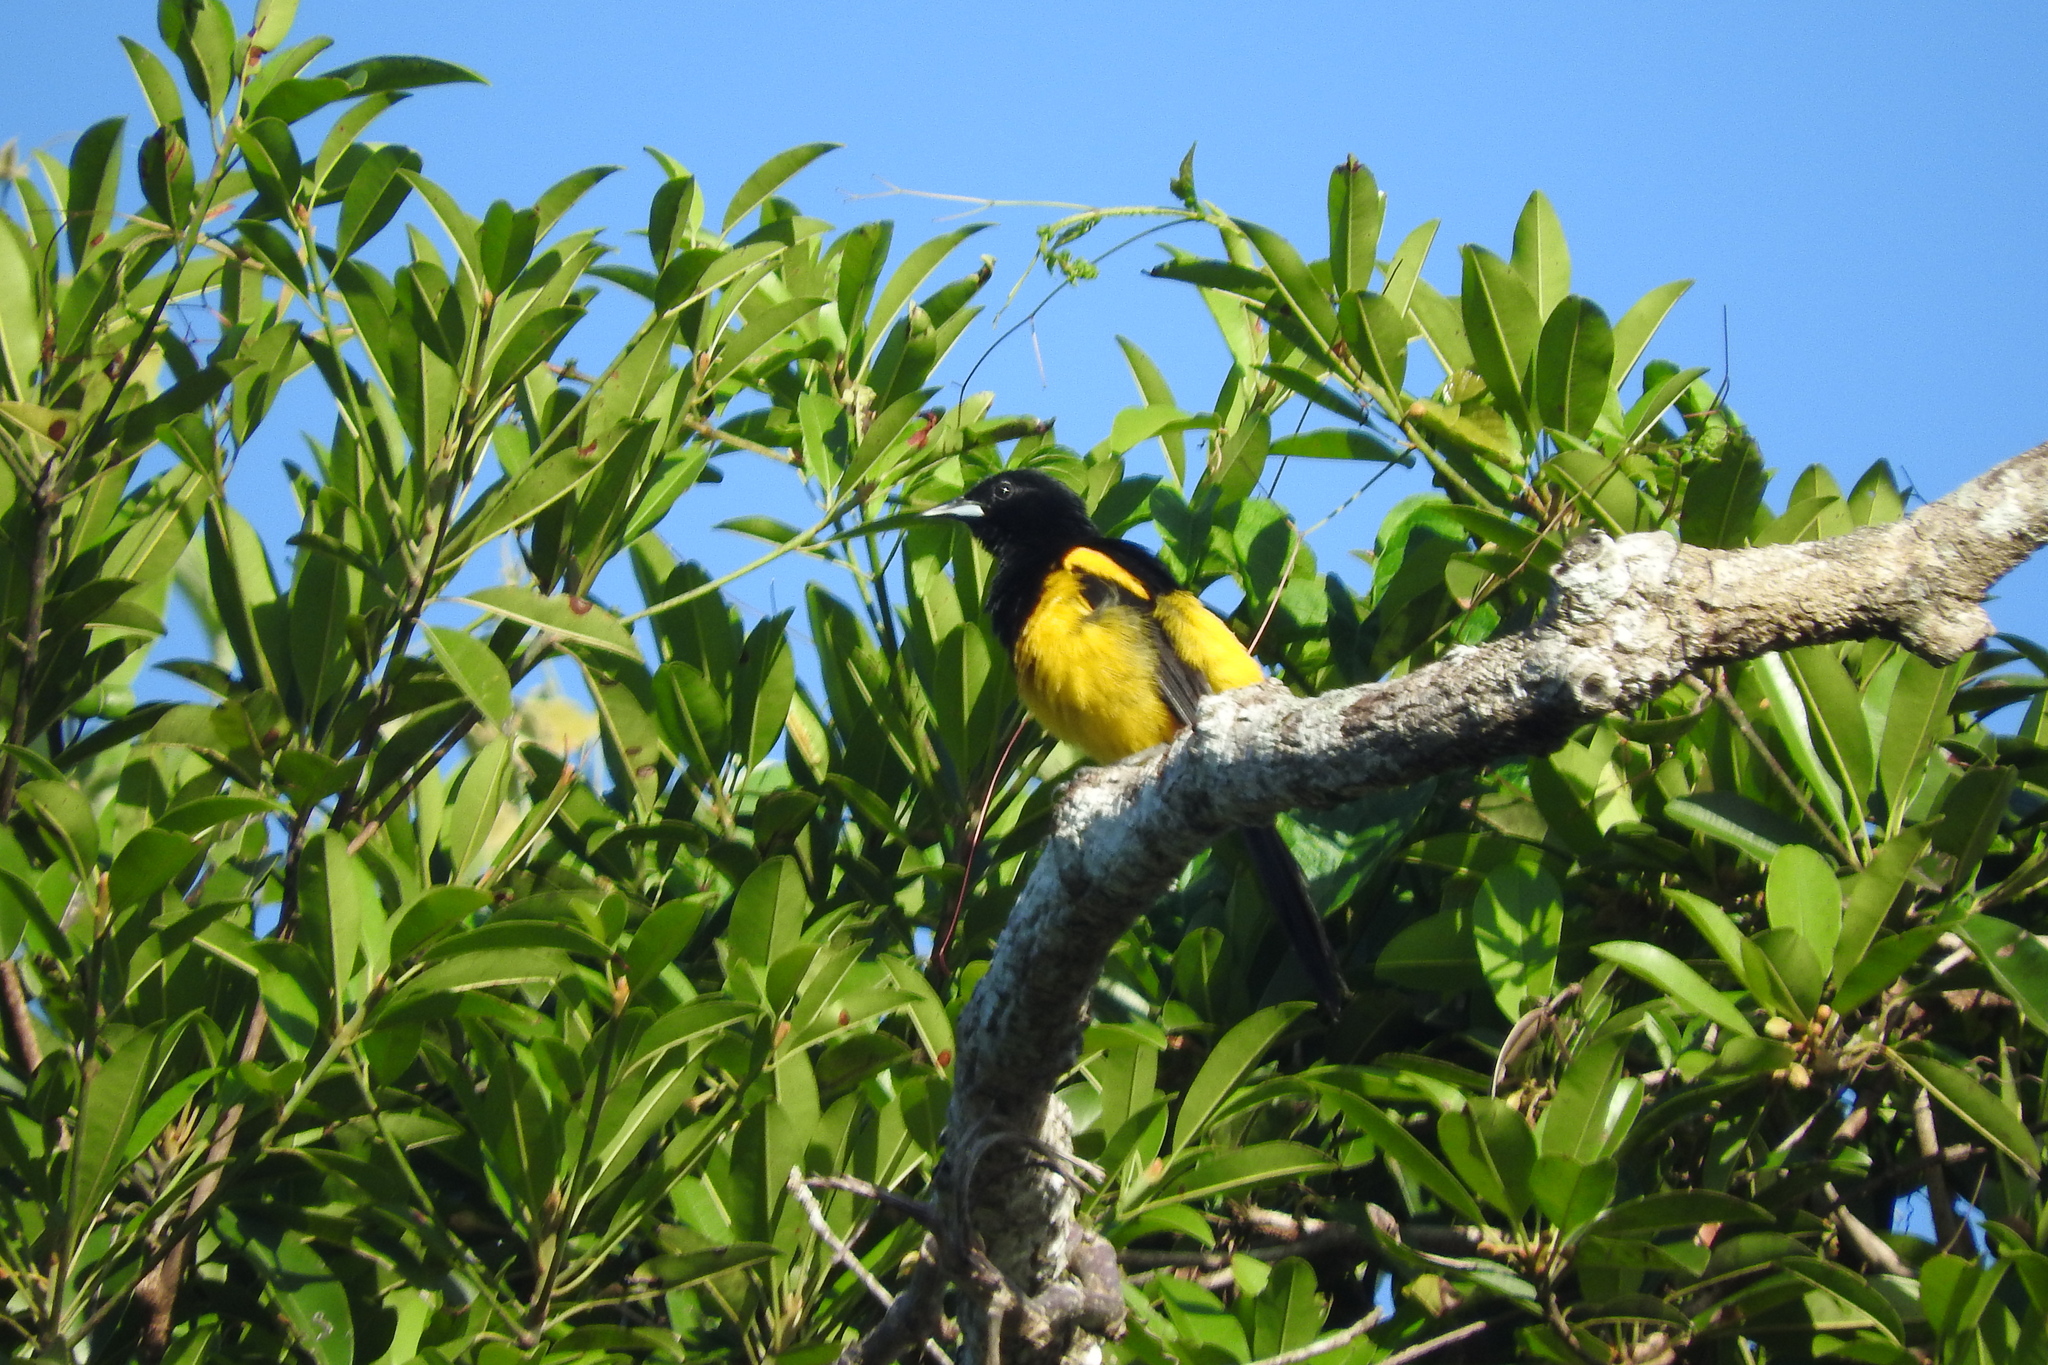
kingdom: Animalia
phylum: Chordata
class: Aves
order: Passeriformes
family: Icteridae
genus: Icterus
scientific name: Icterus prosthemelas
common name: Black-cowled oriole
